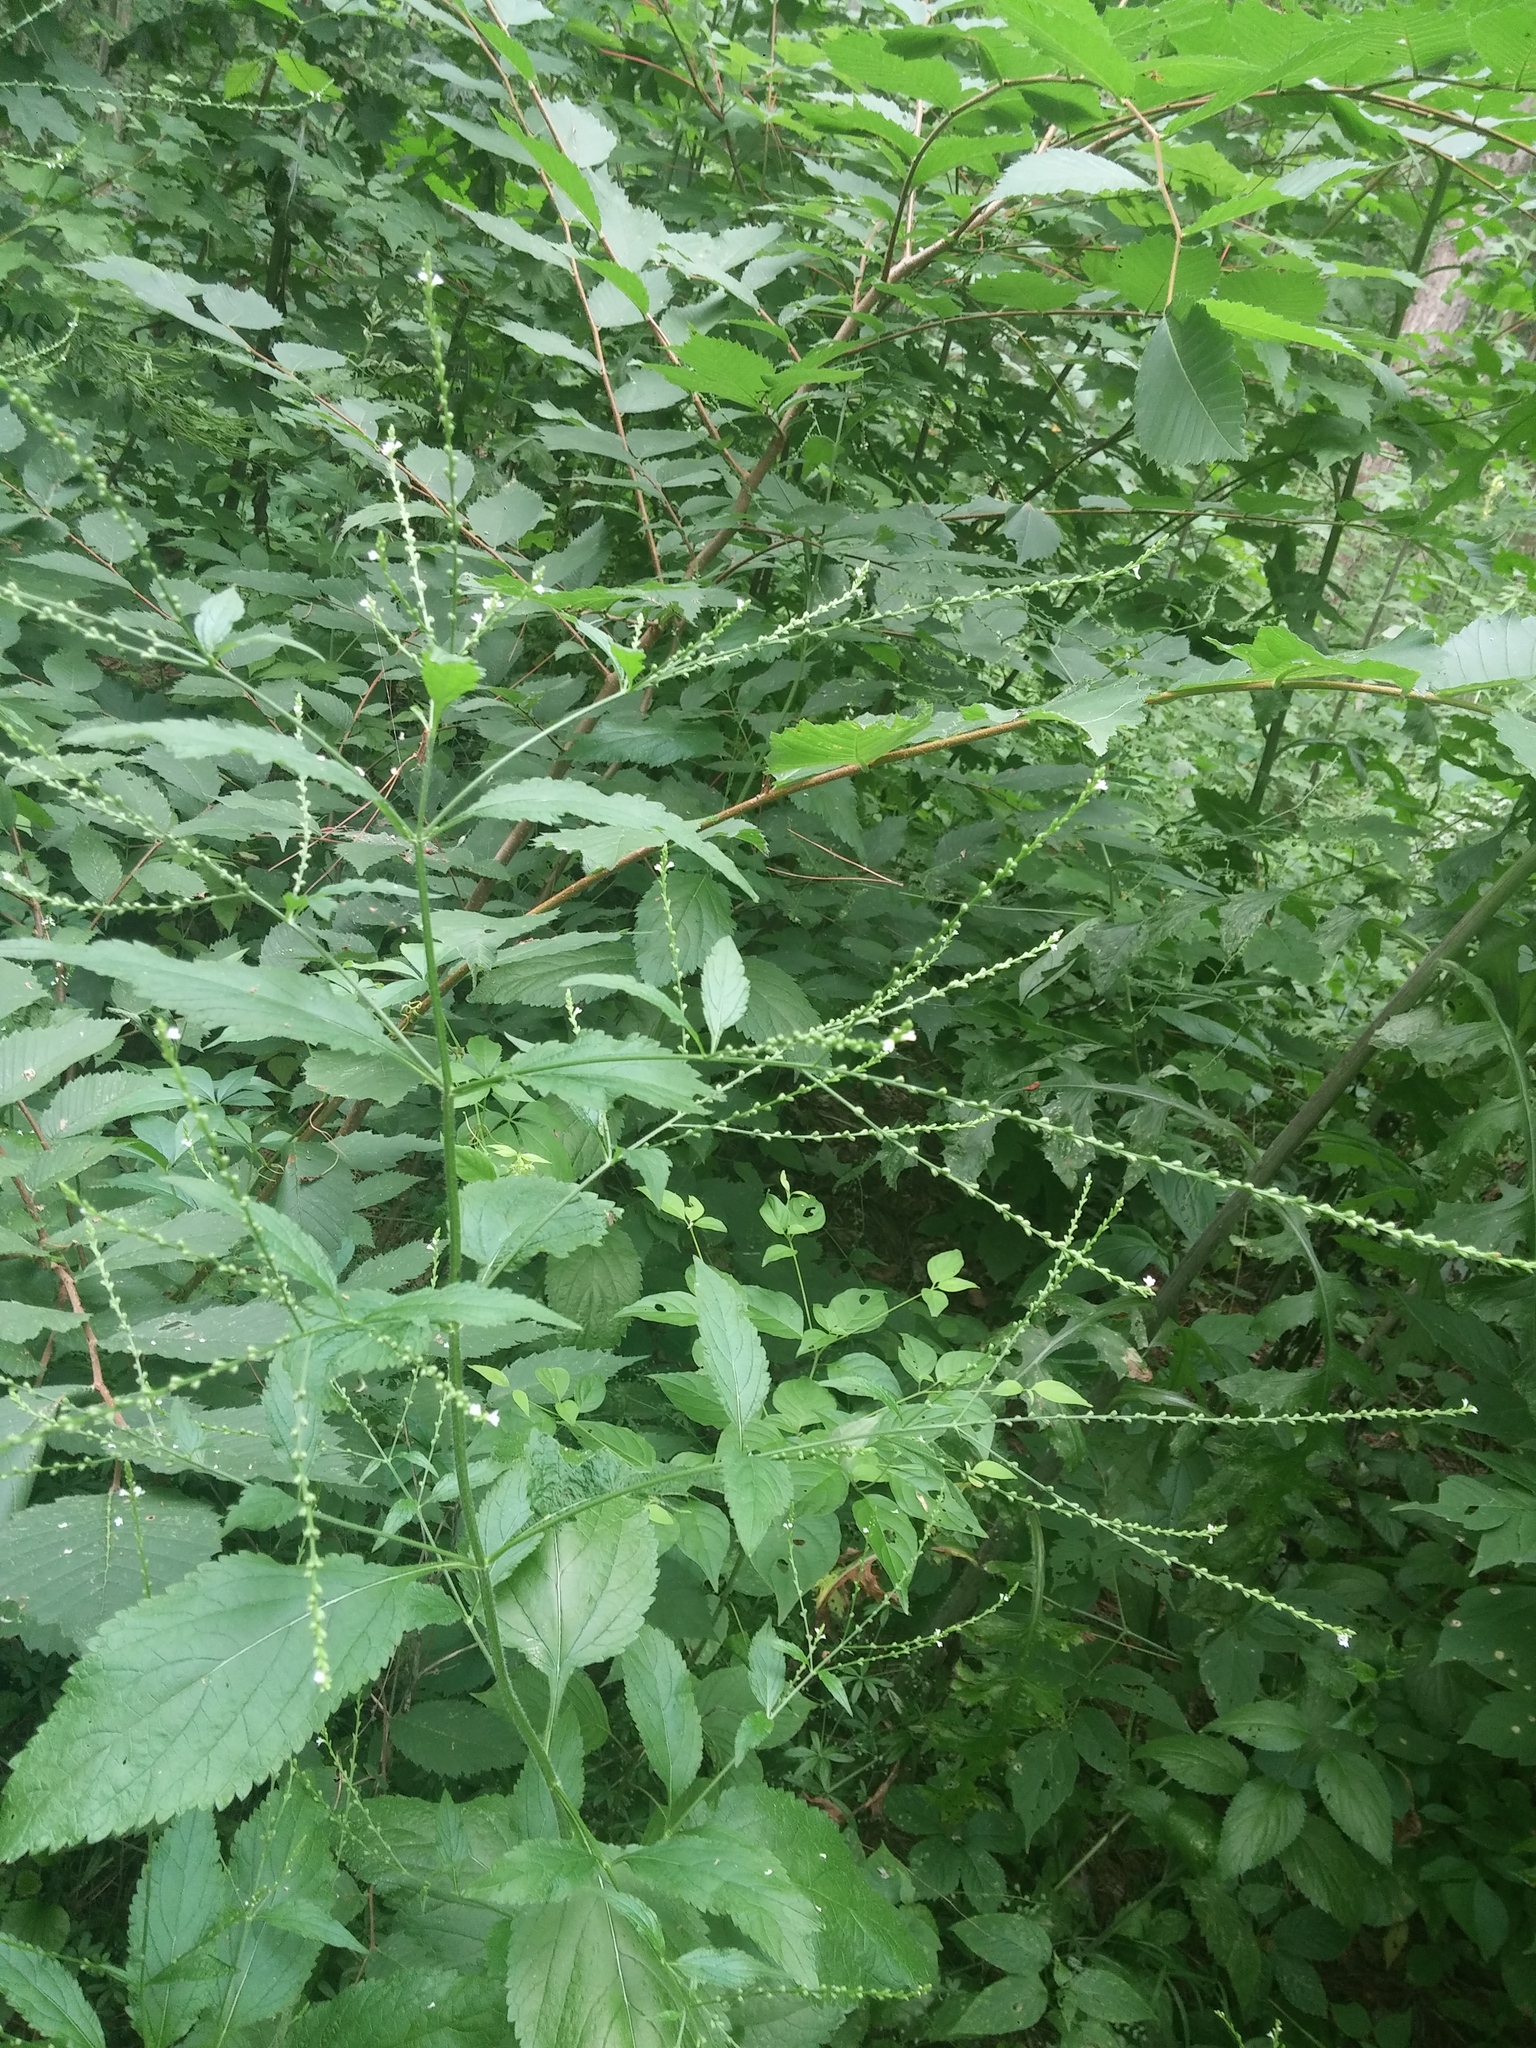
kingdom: Plantae
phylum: Tracheophyta
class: Magnoliopsida
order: Lamiales
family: Verbenaceae
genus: Verbena
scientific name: Verbena urticifolia
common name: Nettle-leaved vervain
